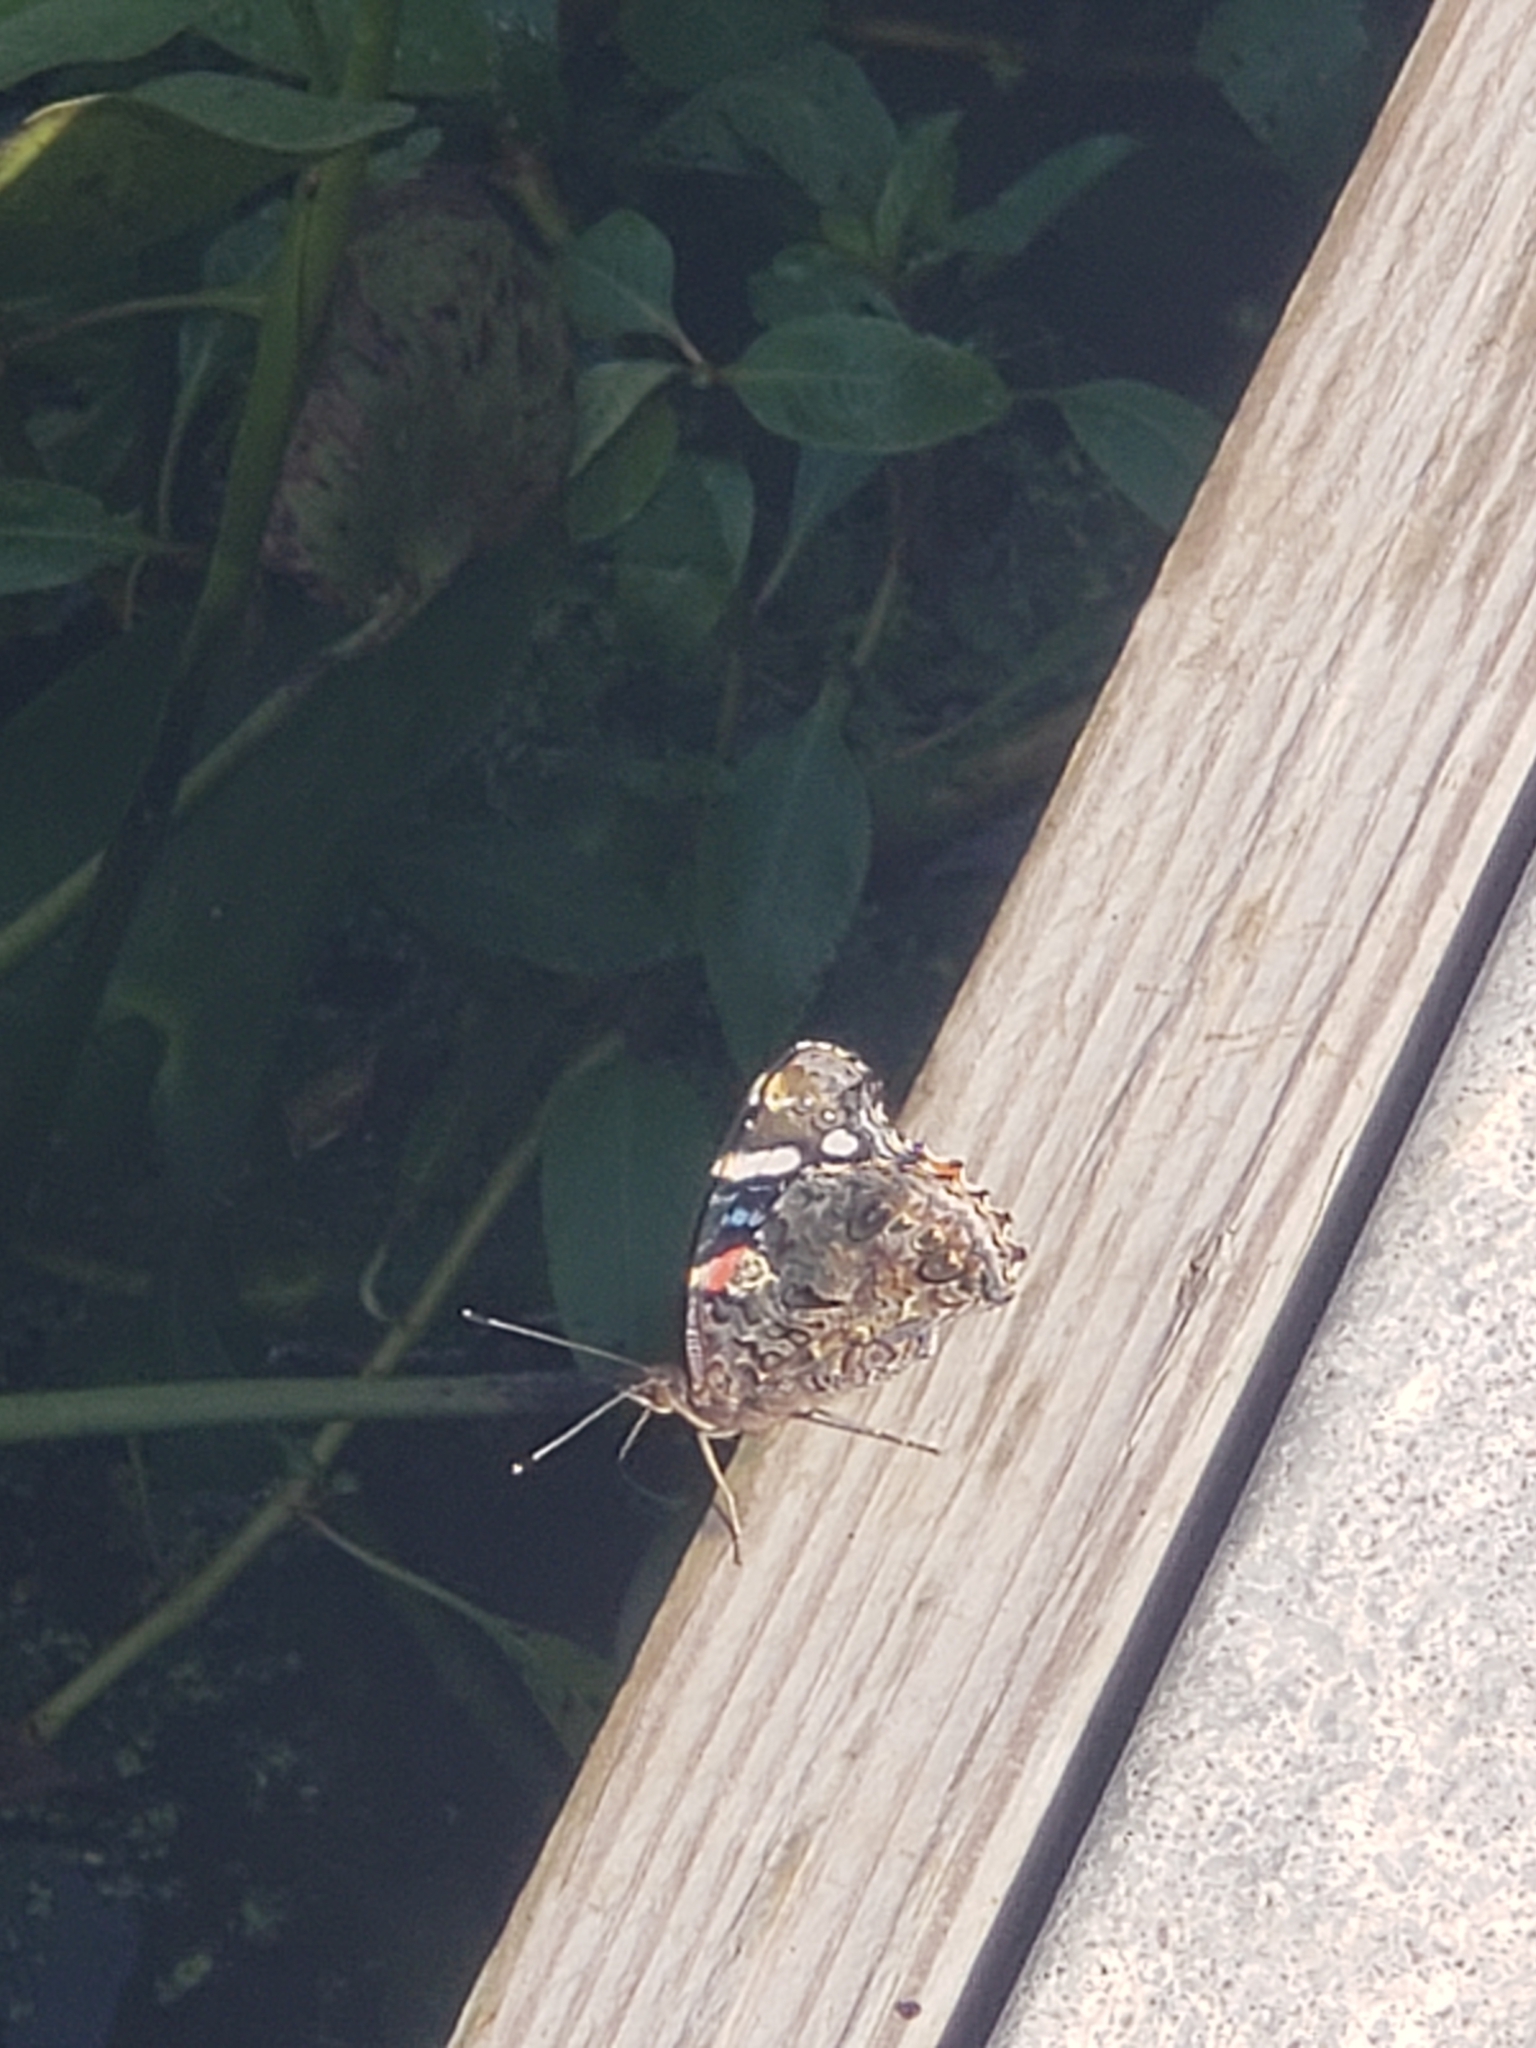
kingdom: Animalia
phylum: Arthropoda
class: Insecta
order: Lepidoptera
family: Nymphalidae
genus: Vanessa
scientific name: Vanessa atalanta
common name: Red admiral
